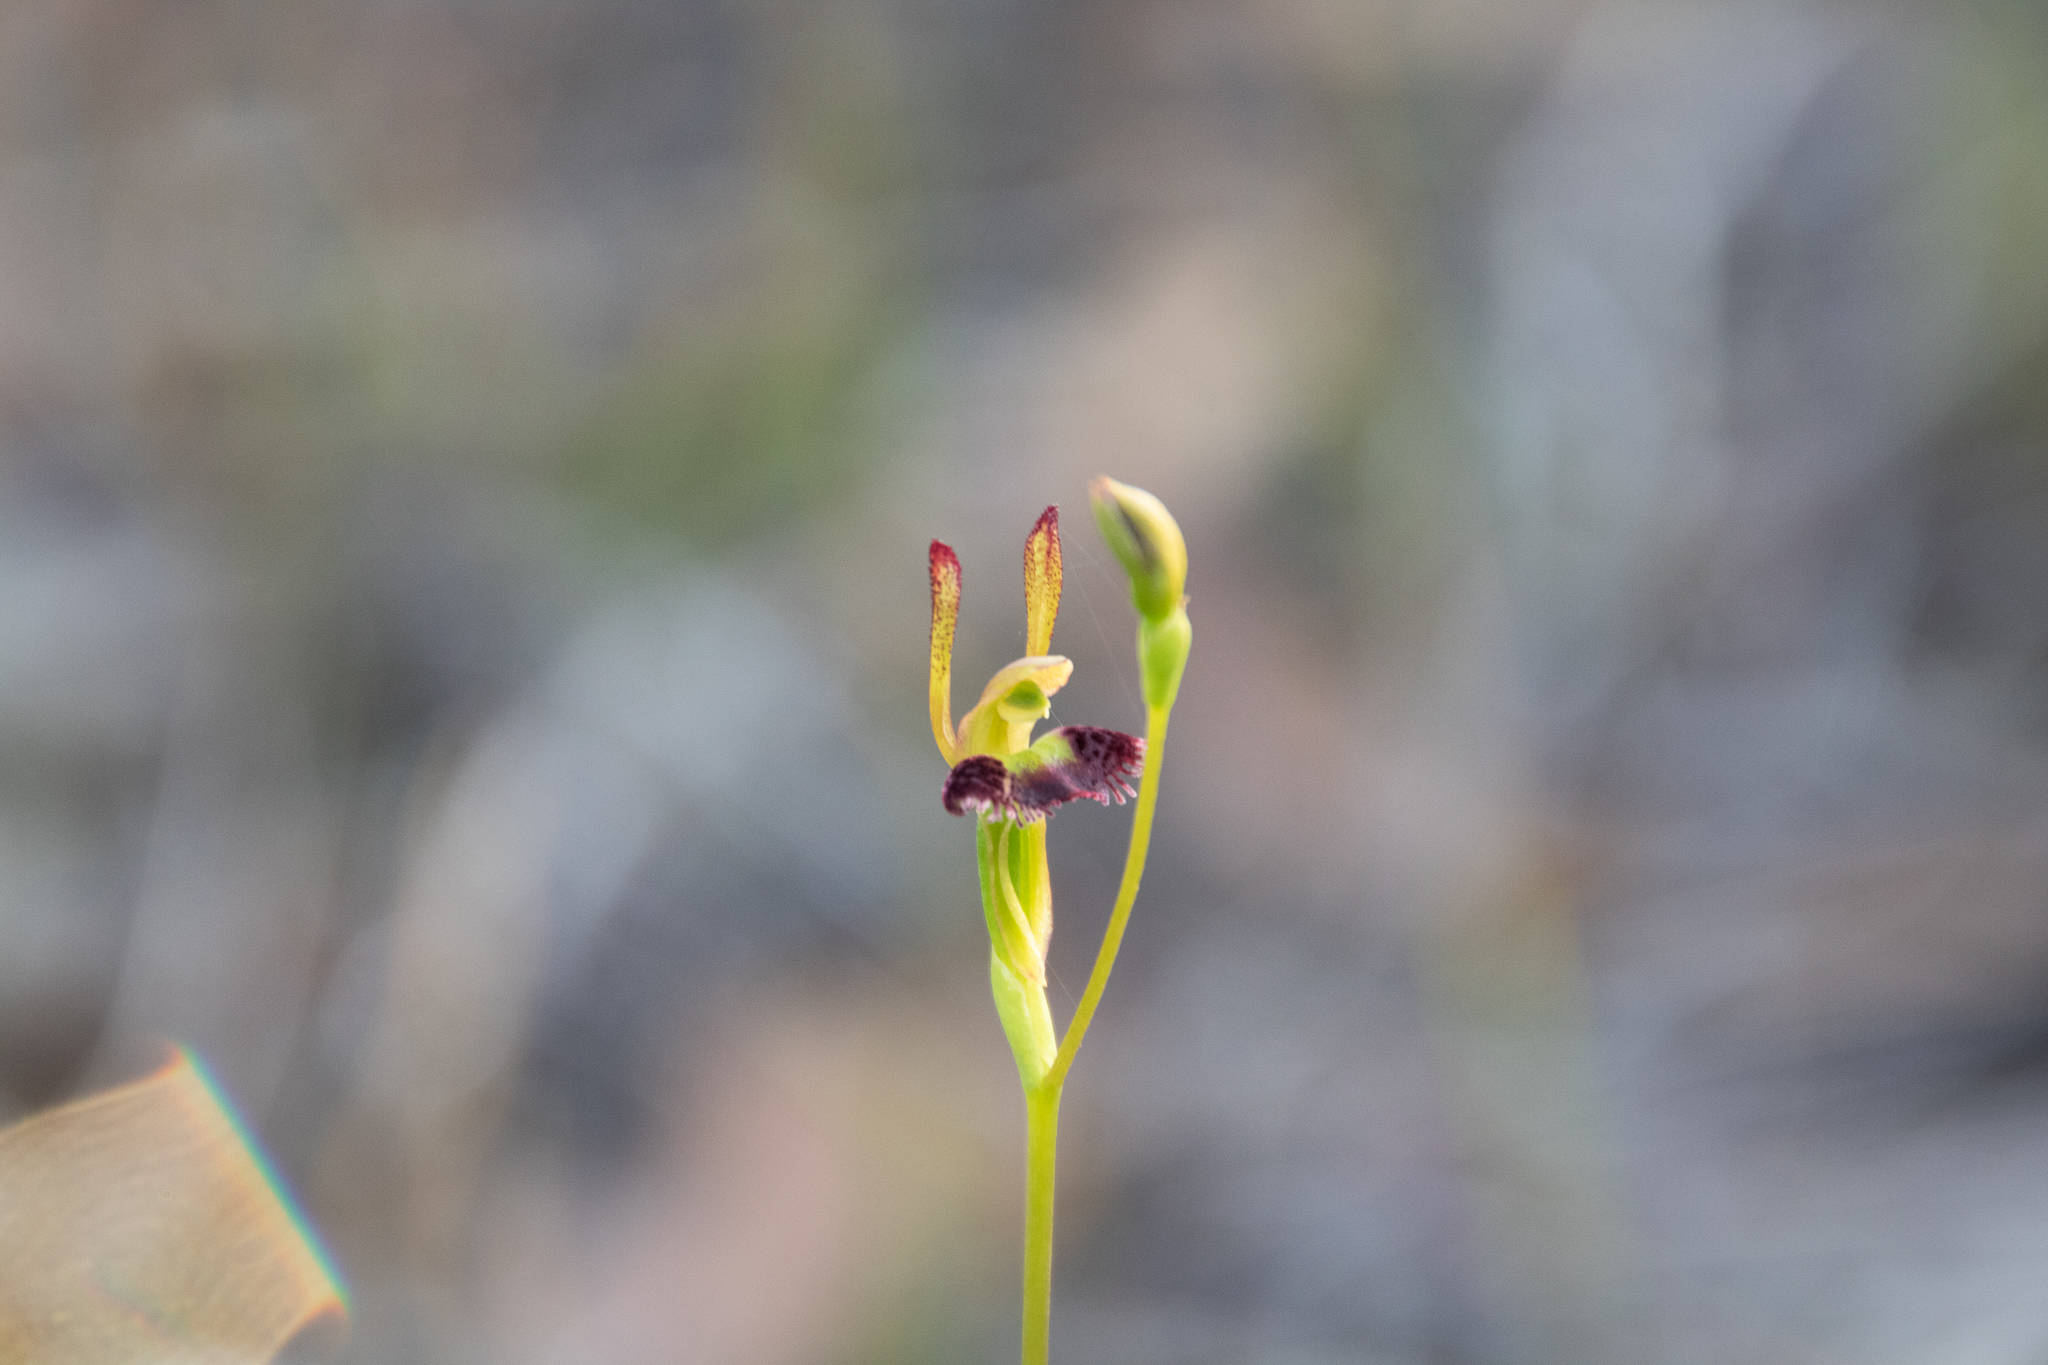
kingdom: Plantae
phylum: Tracheophyta
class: Liliopsida
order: Asparagales
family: Orchidaceae
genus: Leporella
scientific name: Leporella fimbriata
